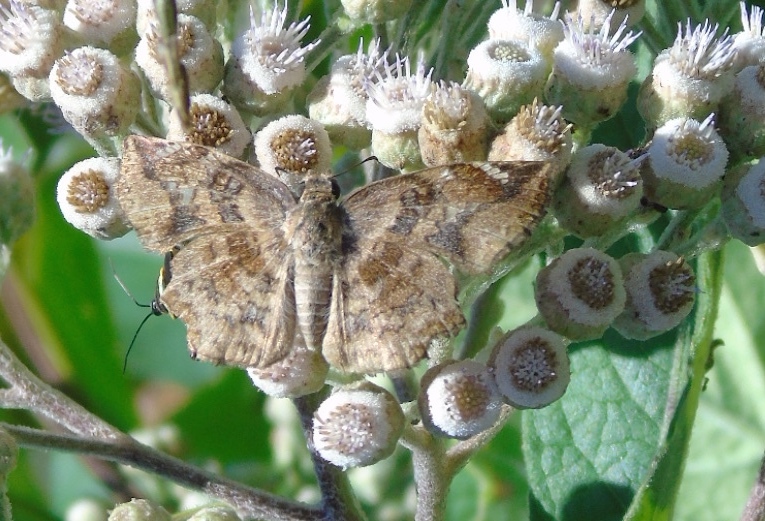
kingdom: Animalia
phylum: Arthropoda
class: Insecta
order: Lepidoptera
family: Hesperiidae
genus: Antigonus
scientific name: Antigonus erosus
